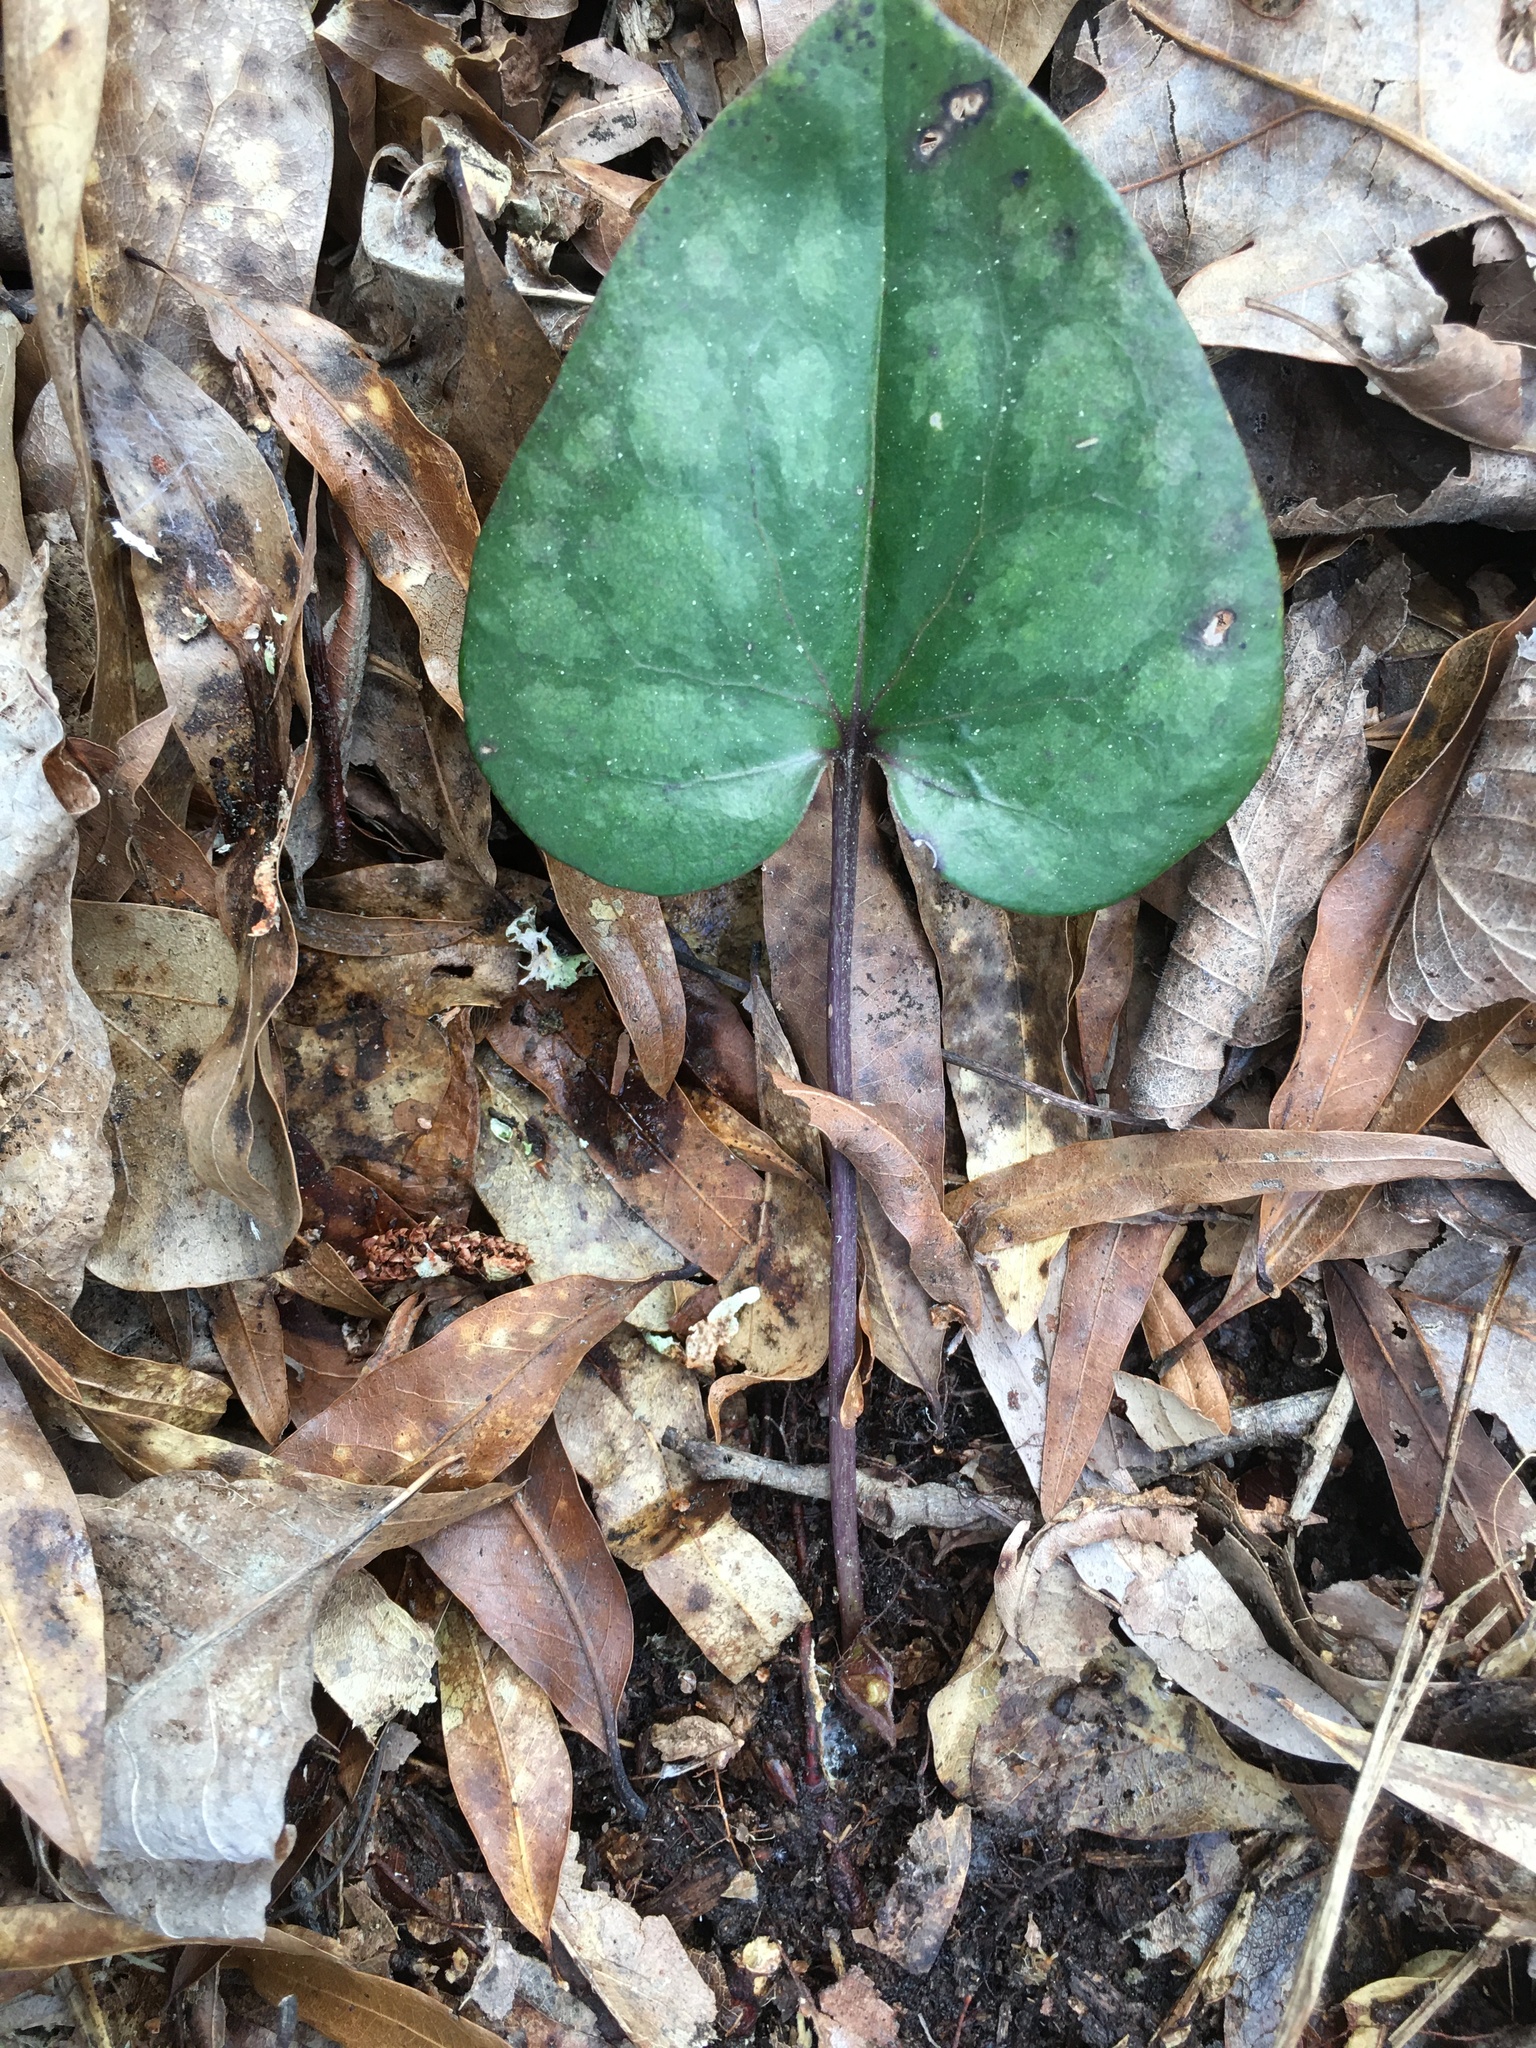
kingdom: Plantae
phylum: Tracheophyta
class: Magnoliopsida
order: Piperales
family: Aristolochiaceae
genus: Hexastylis
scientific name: Hexastylis arifolia
